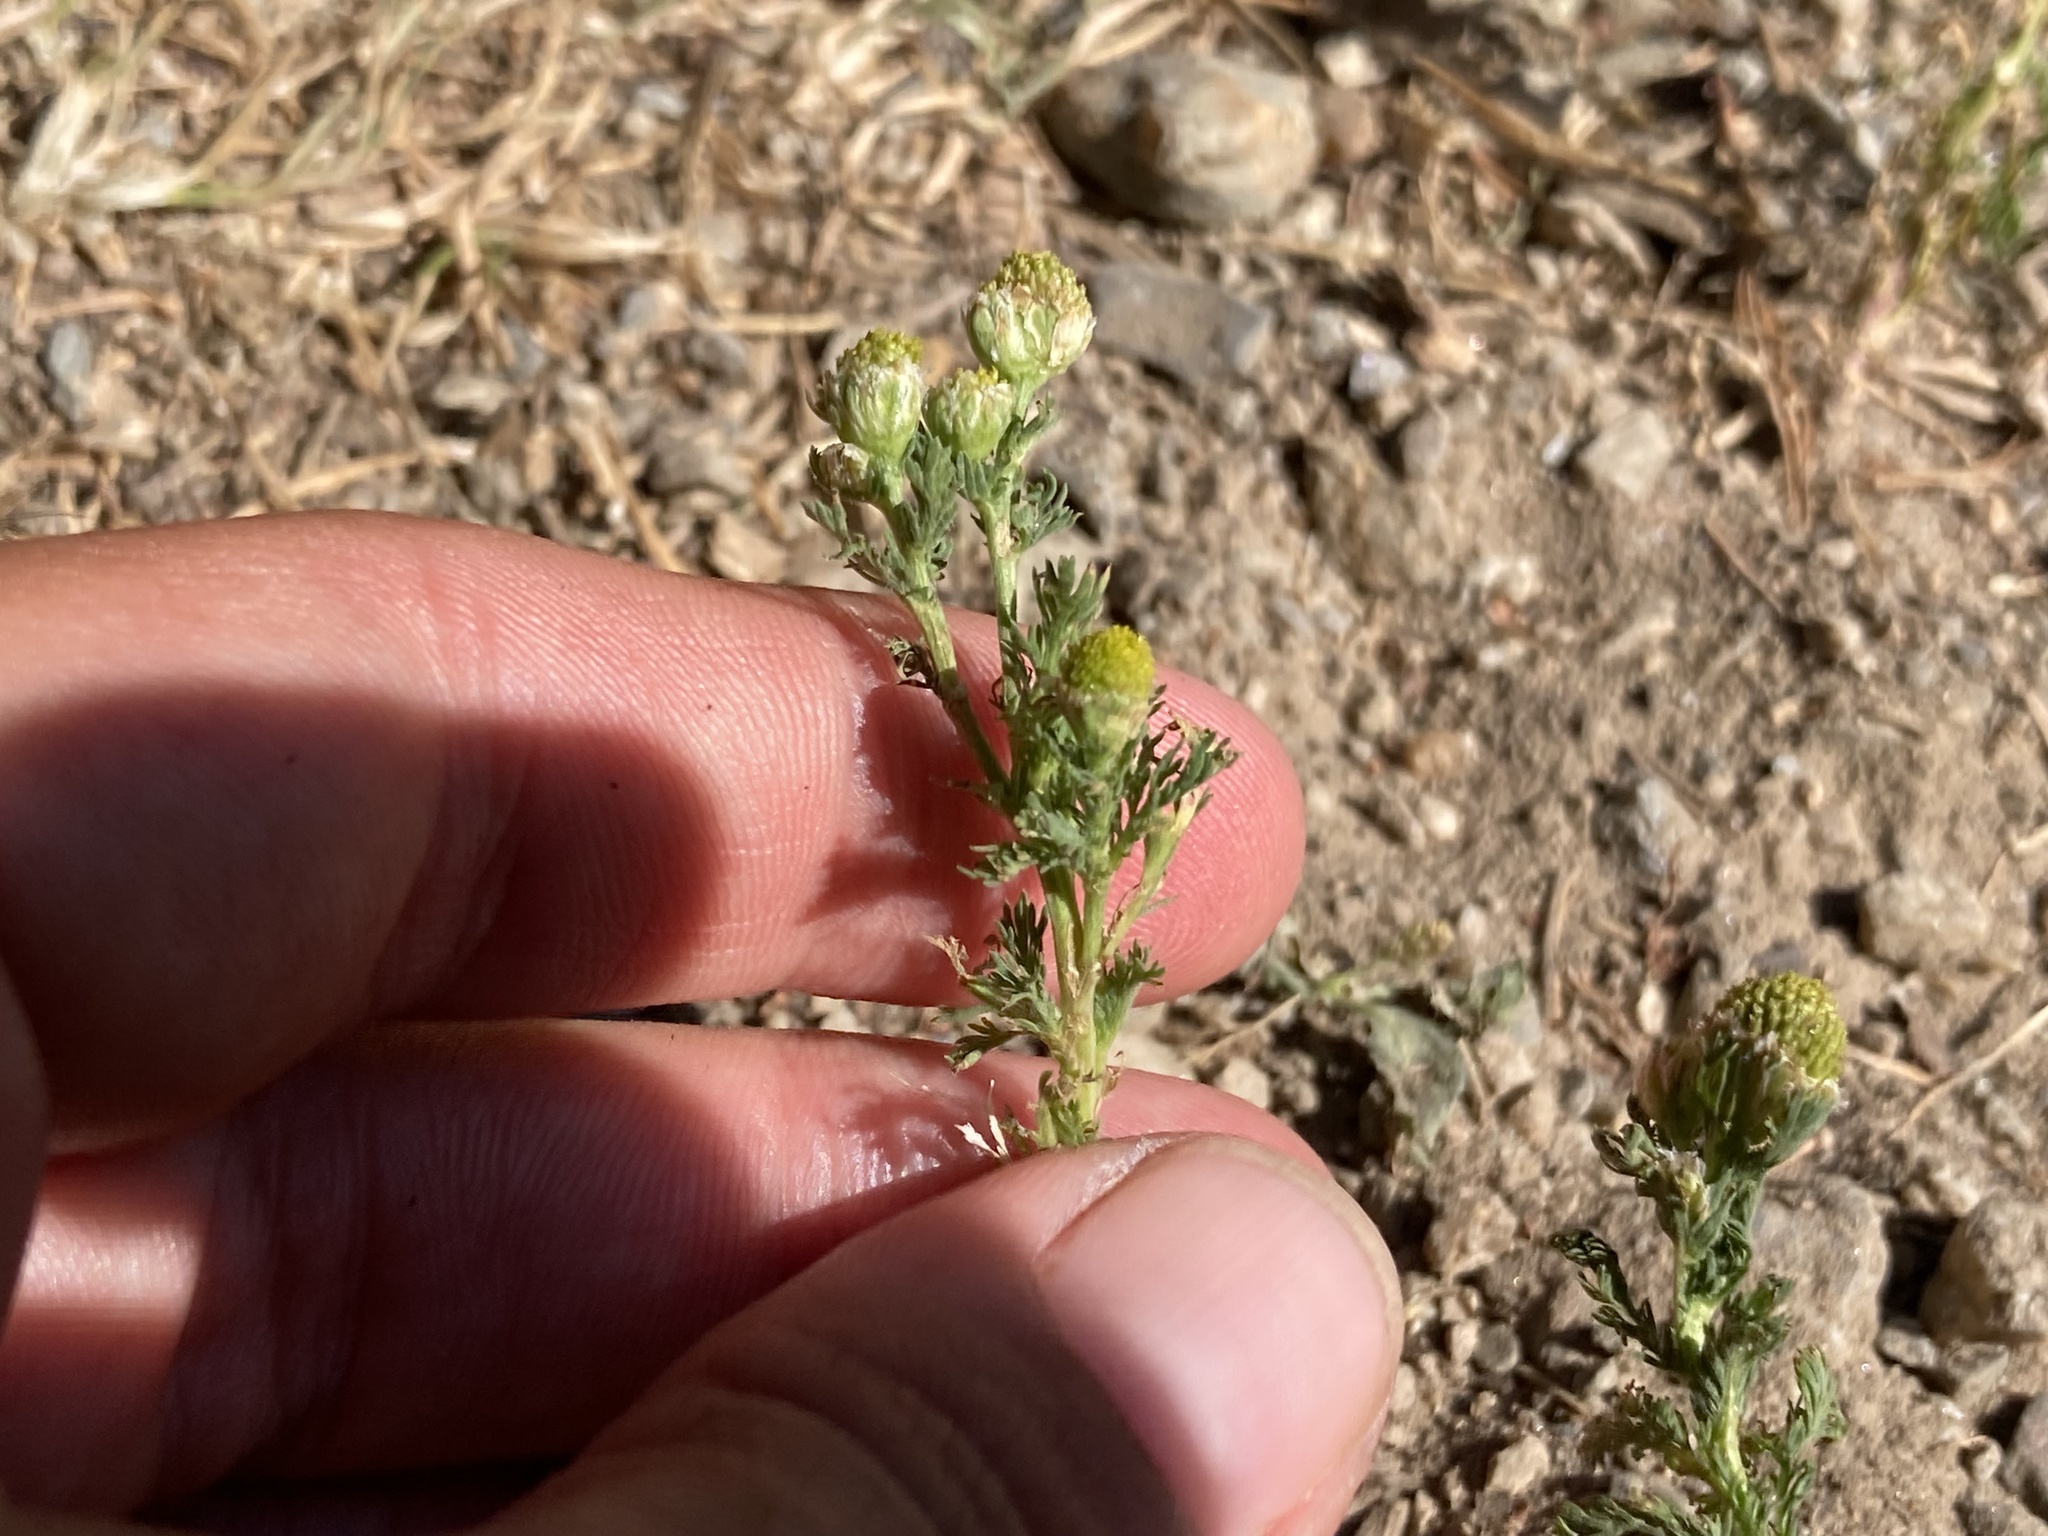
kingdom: Plantae
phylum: Tracheophyta
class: Magnoliopsida
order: Asterales
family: Asteraceae
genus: Matricaria
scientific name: Matricaria discoidea
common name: Disc mayweed
